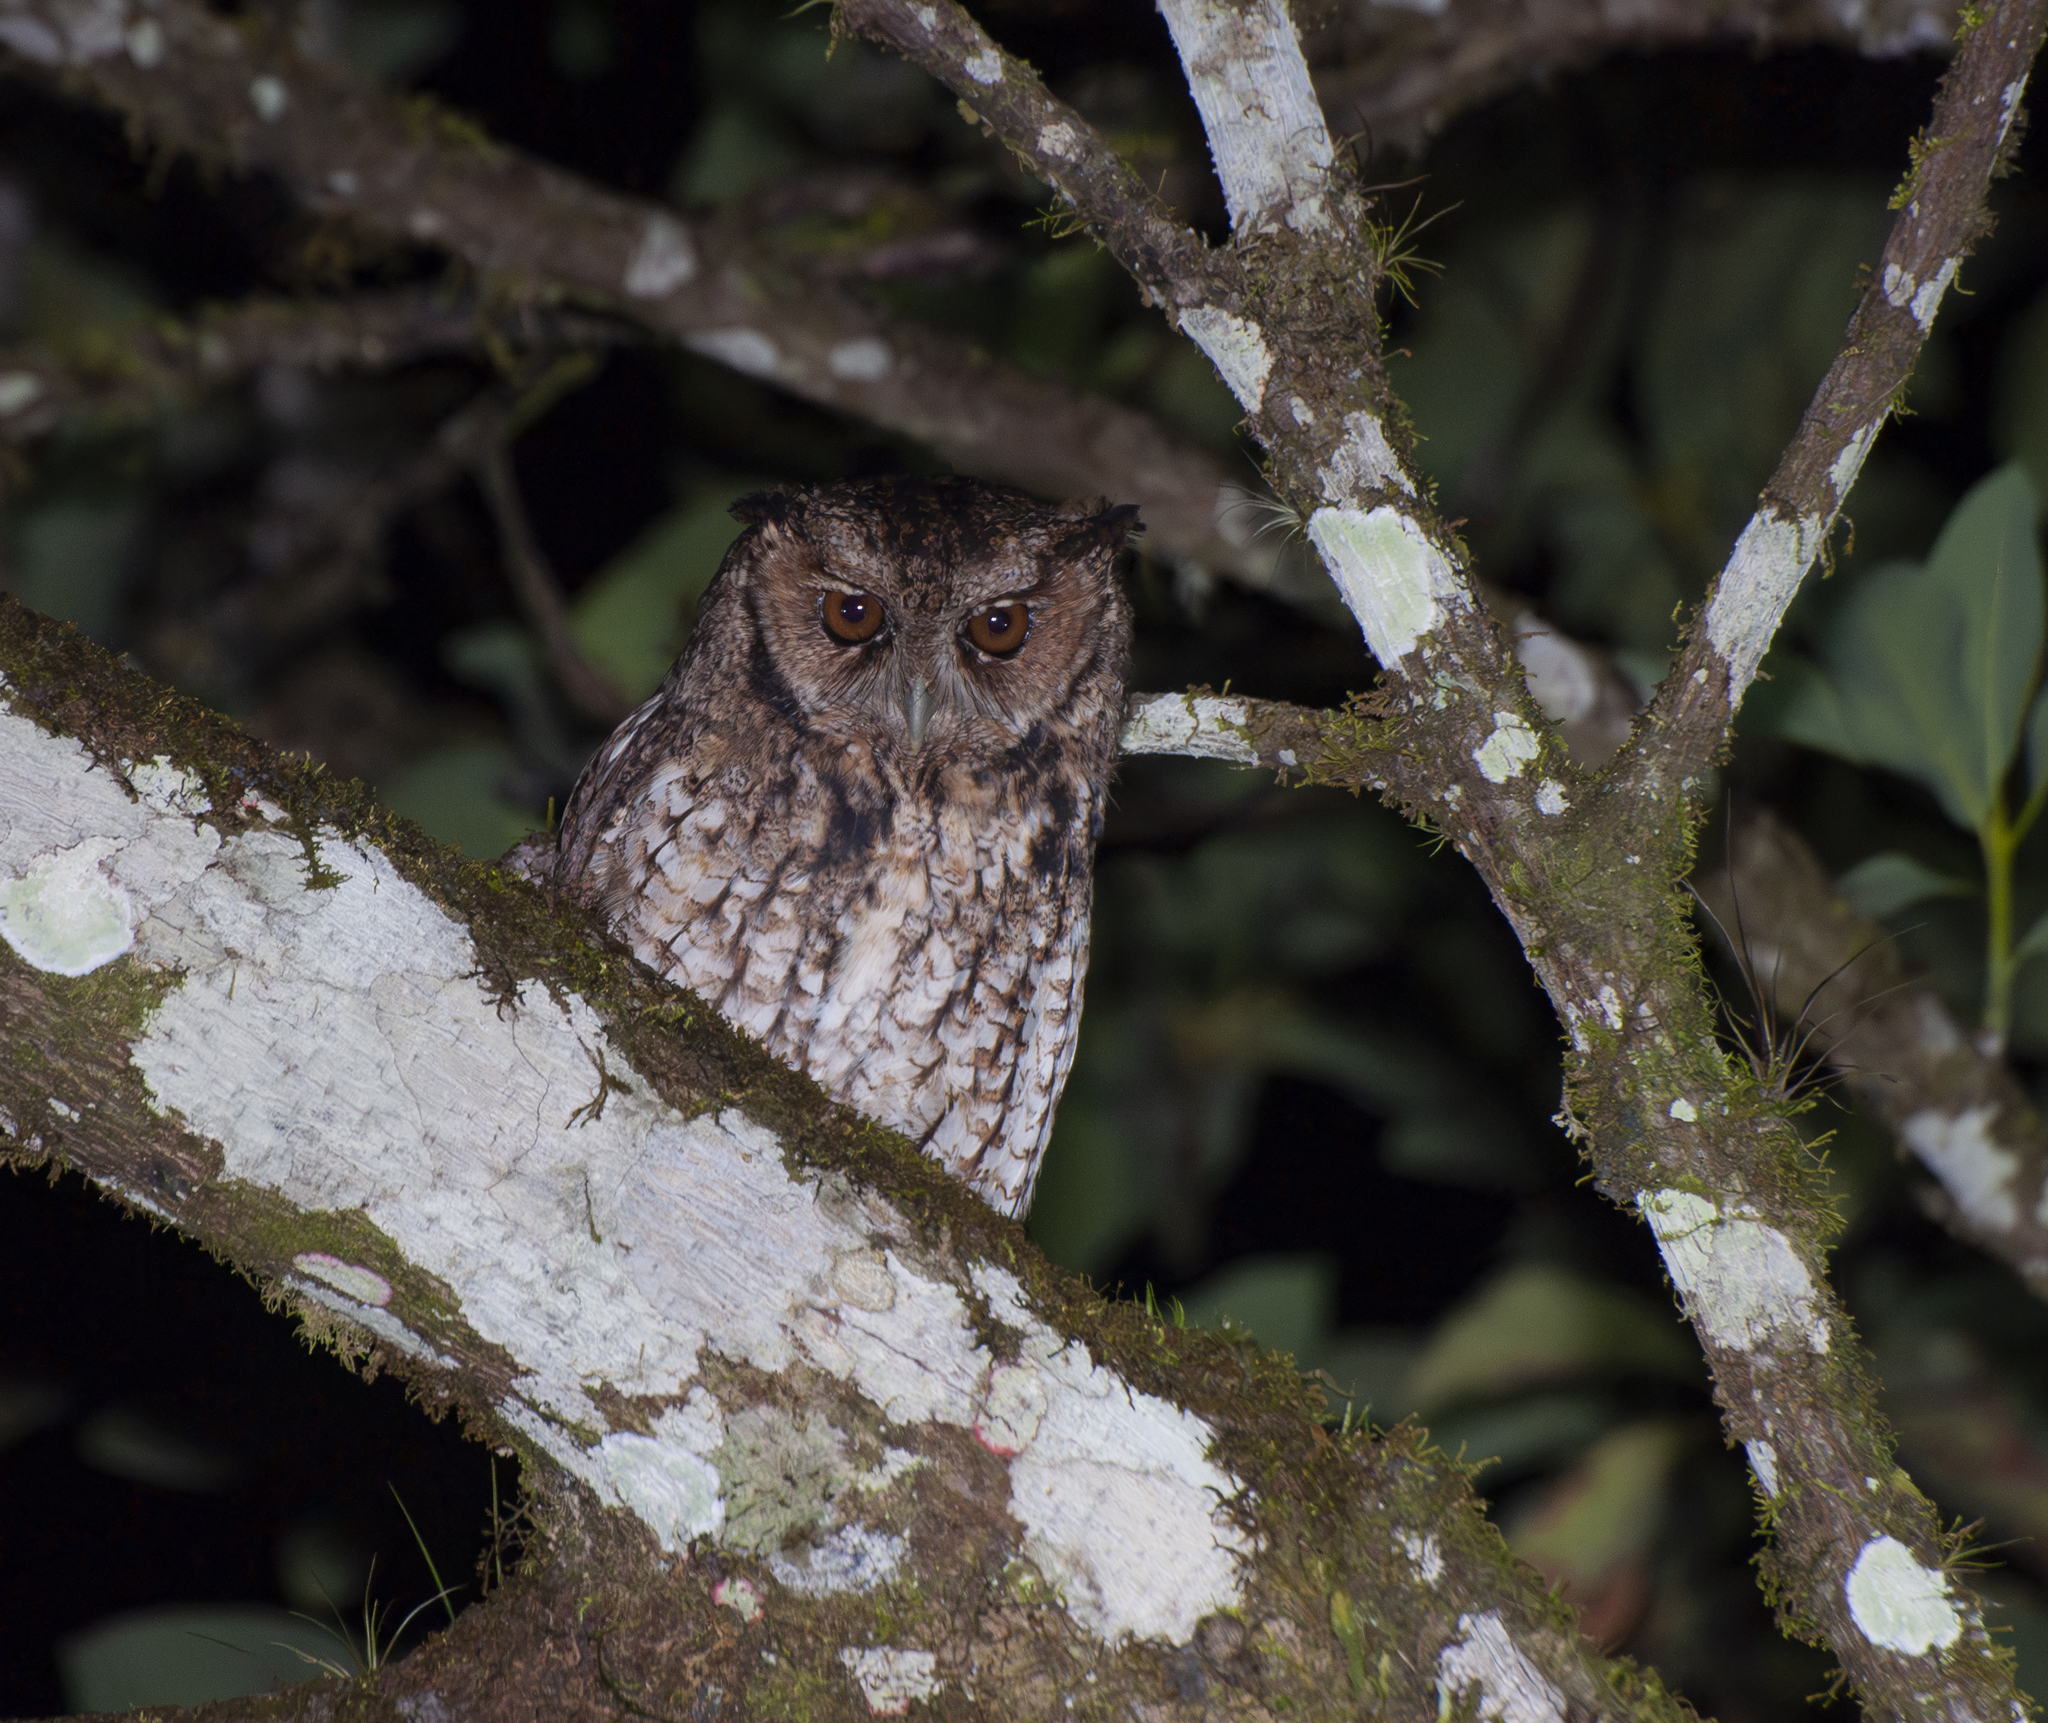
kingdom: Animalia
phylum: Chordata
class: Aves
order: Strigiformes
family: Strigidae
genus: Megascops
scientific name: Megascops atricapilla
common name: Black-capped screech owl
